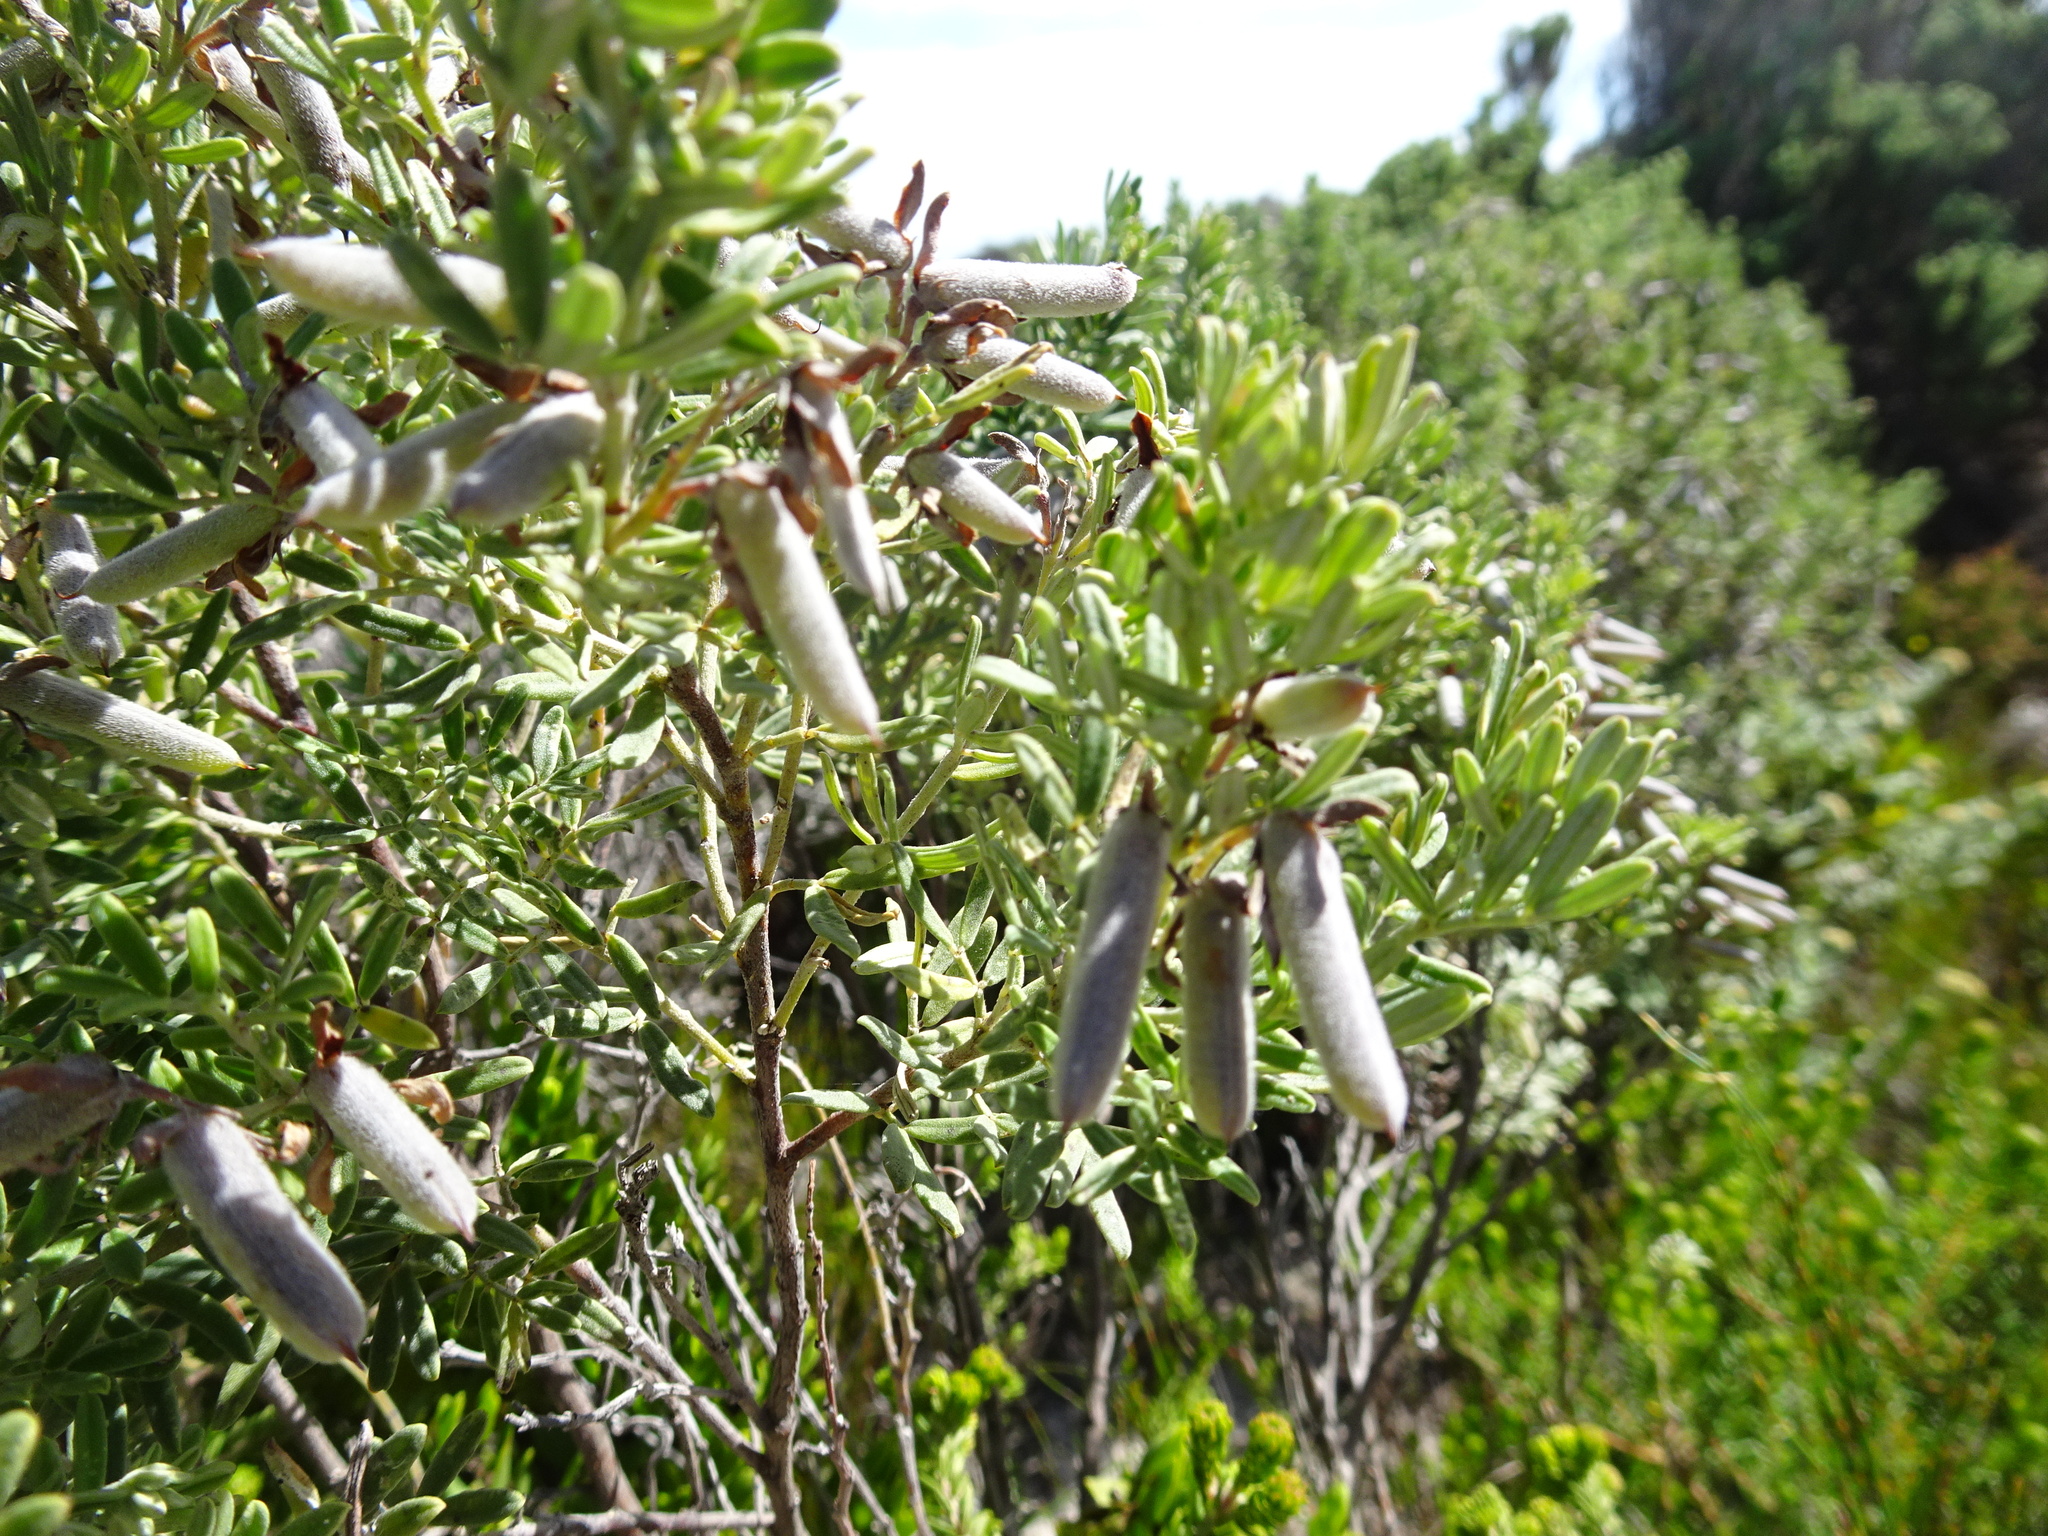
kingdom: Plantae
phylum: Tracheophyta
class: Magnoliopsida
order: Fabales
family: Fabaceae
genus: Indigofera
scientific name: Indigofera brachystachya
